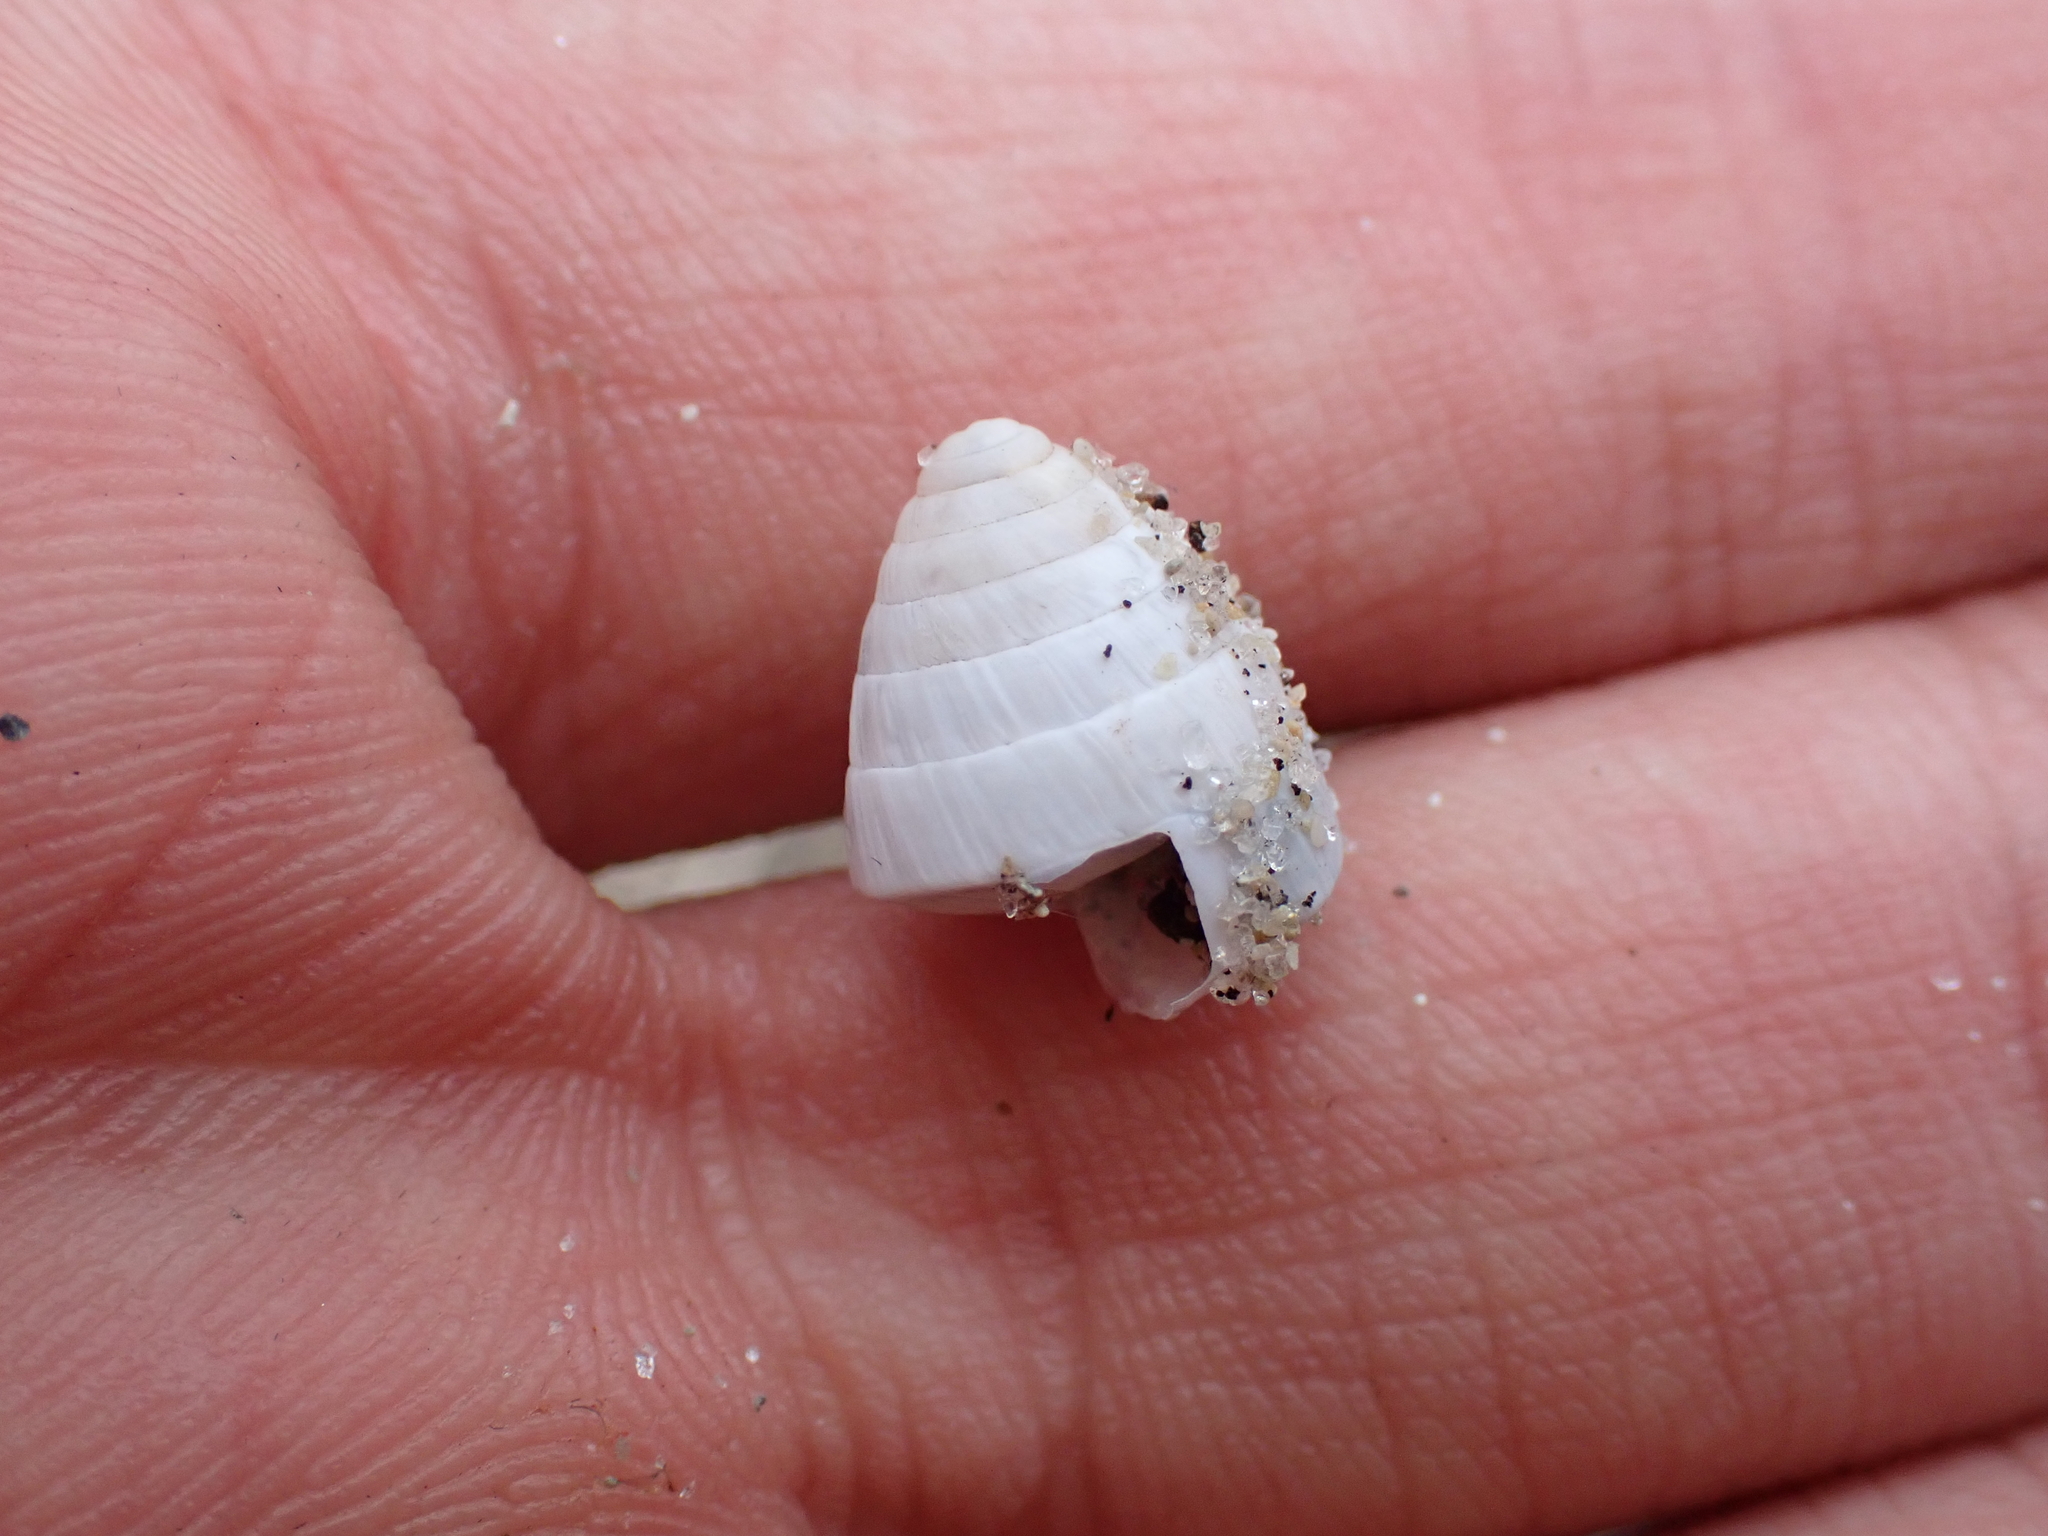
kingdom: Animalia
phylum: Mollusca
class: Gastropoda
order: Stylommatophora
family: Cerionidae
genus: Cerion
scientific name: Cerion incanum
